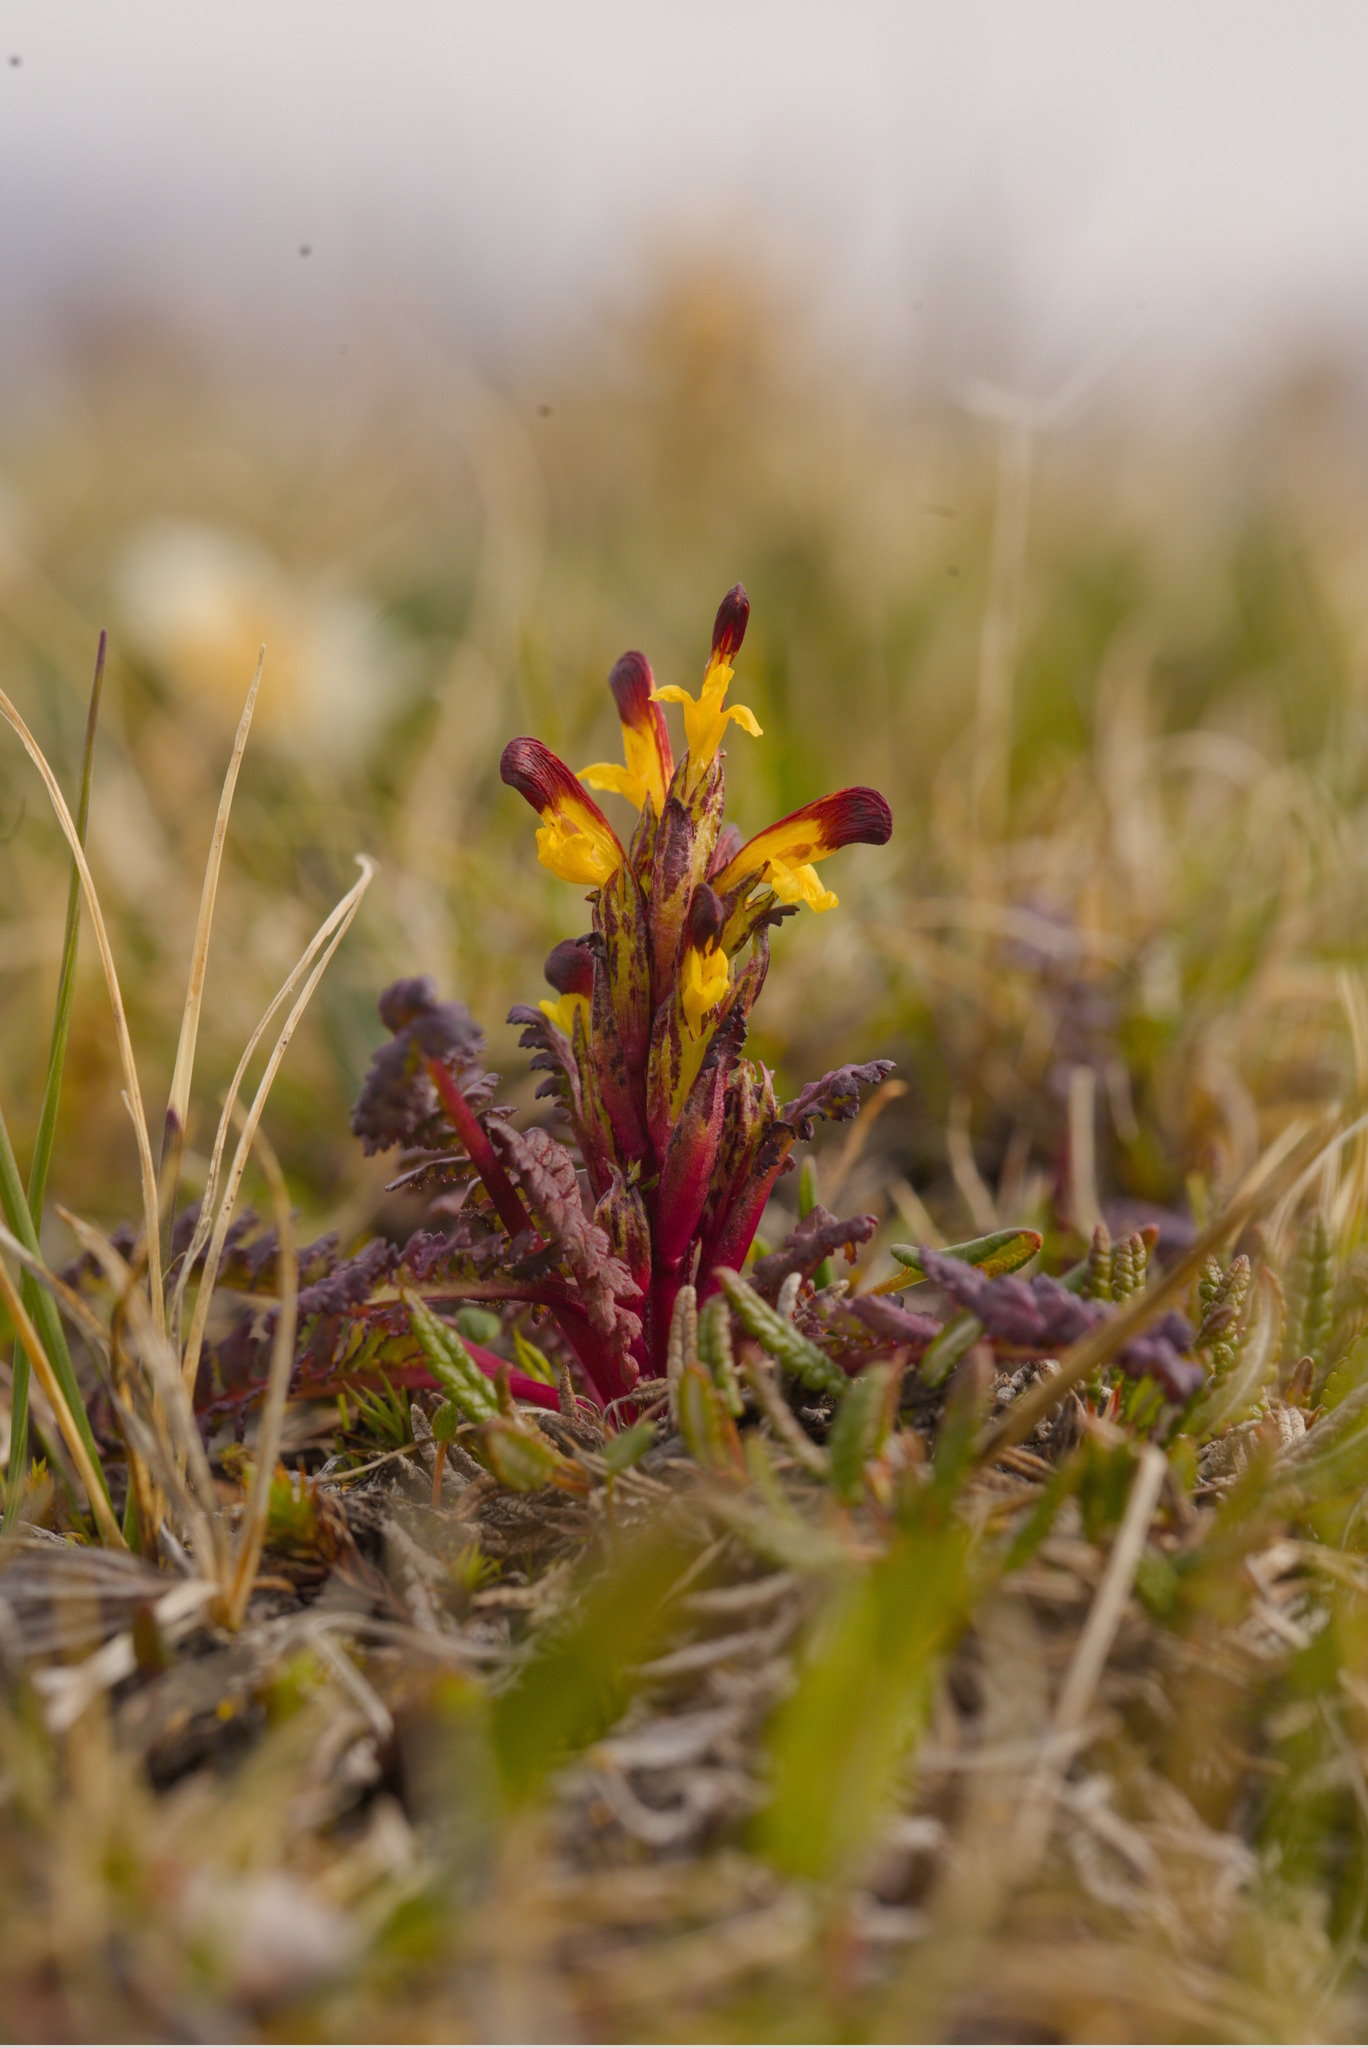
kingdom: Plantae
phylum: Tracheophyta
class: Magnoliopsida
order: Lamiales
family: Orobanchaceae
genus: Pedicularis
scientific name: Pedicularis flammea
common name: Flame-coloured lousewort
